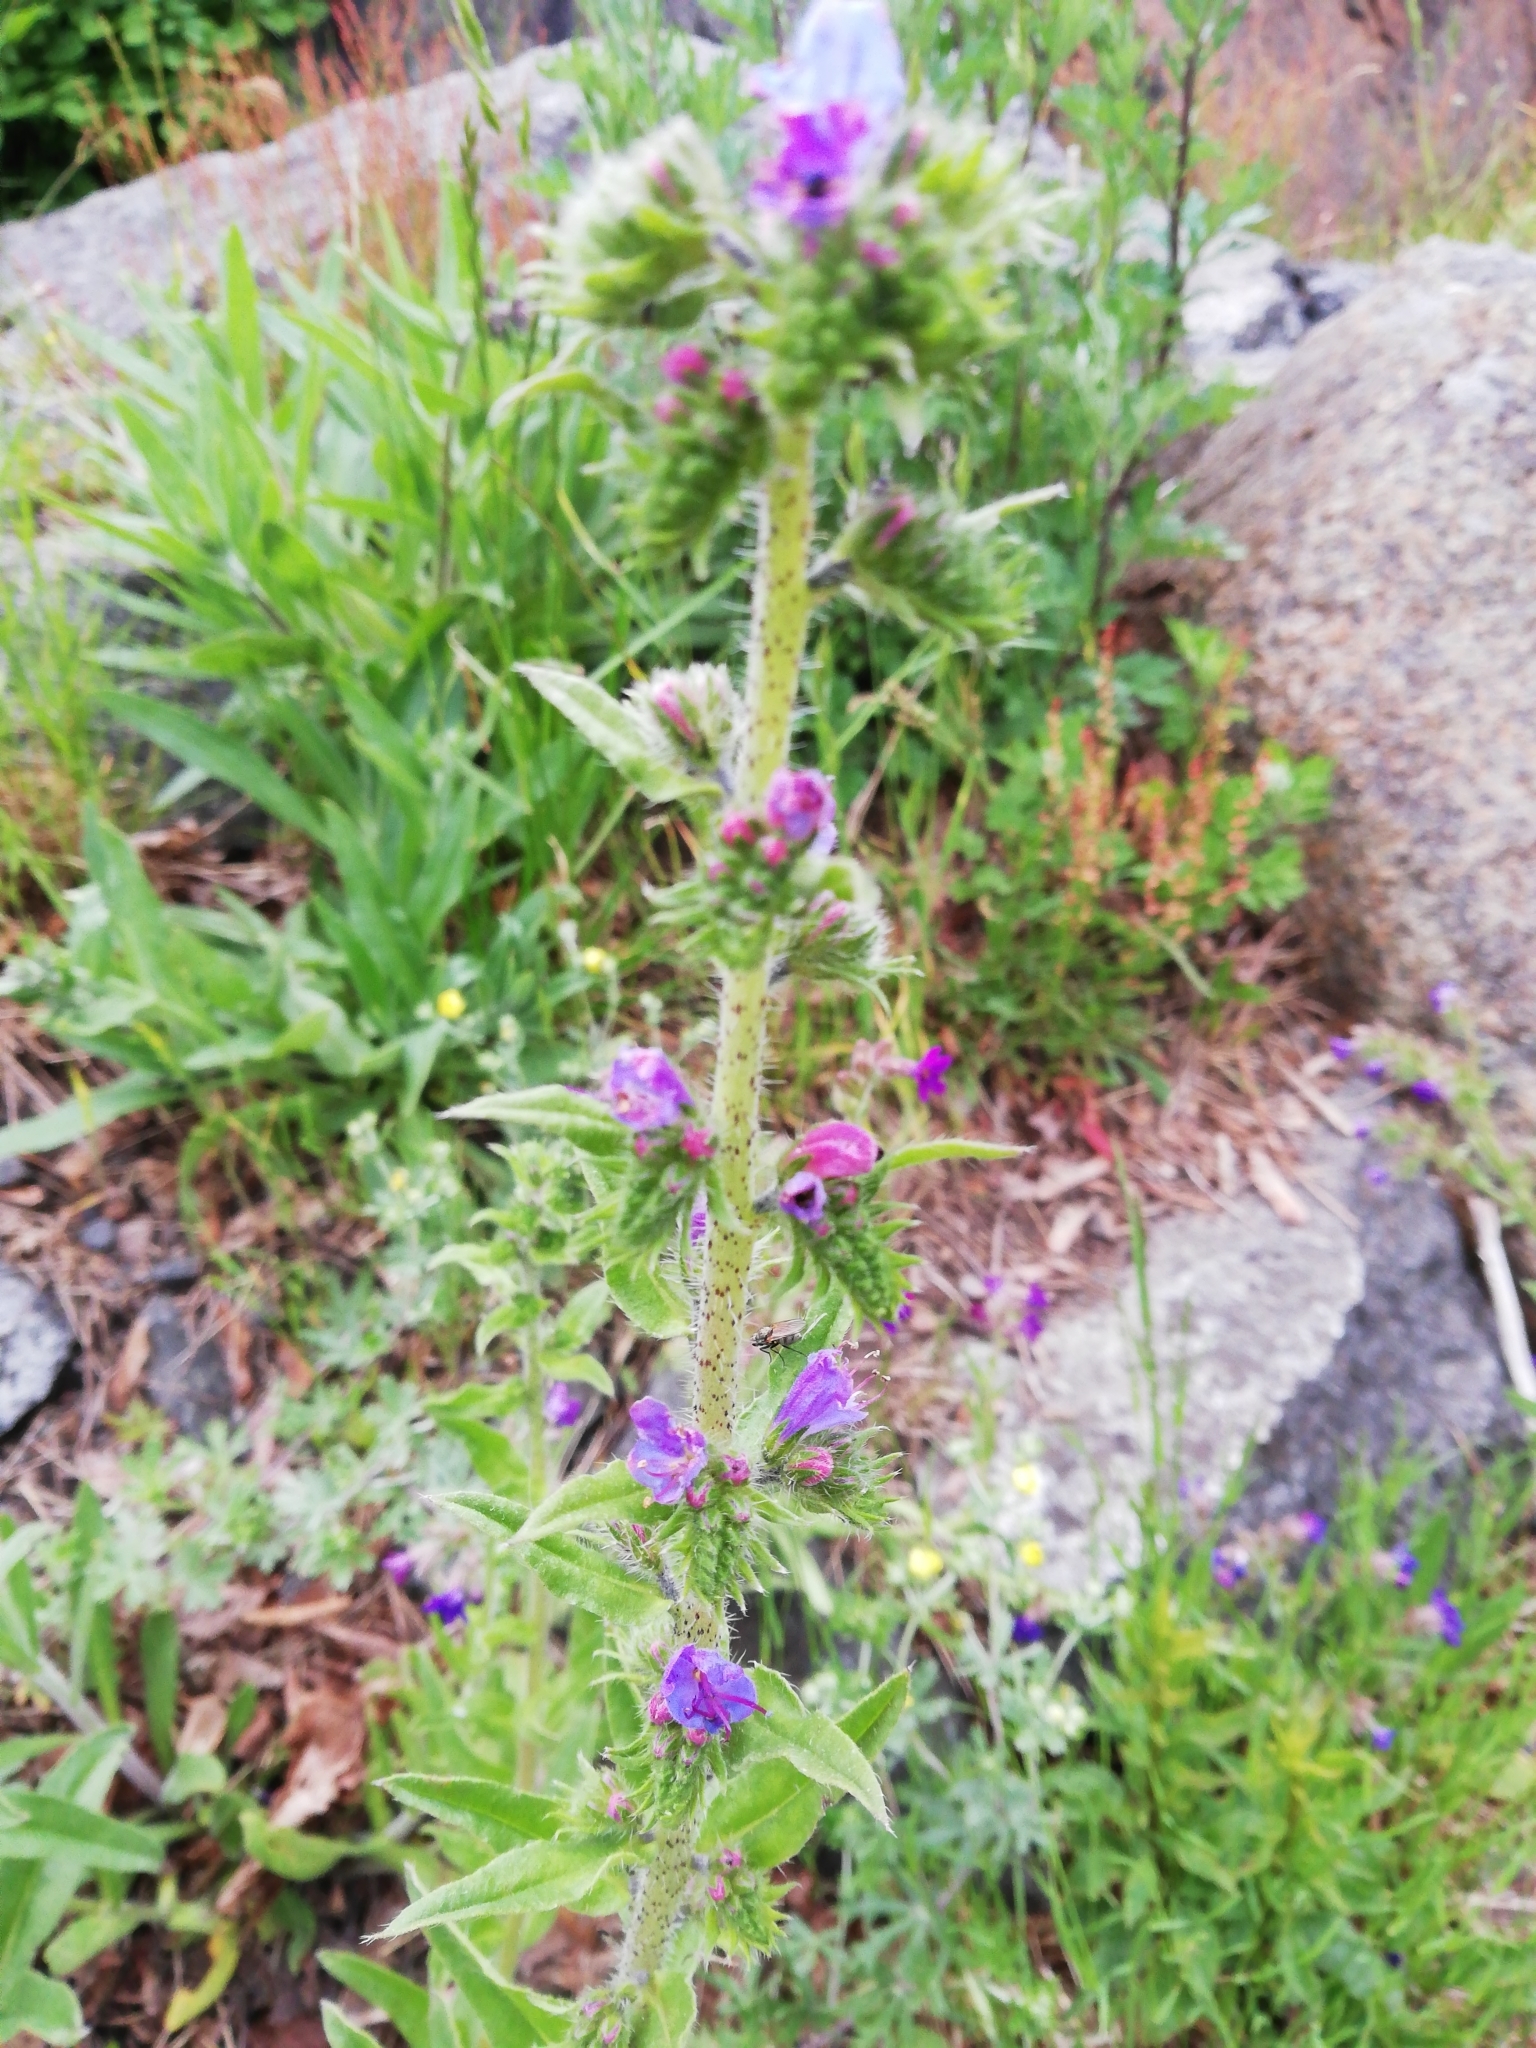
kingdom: Plantae
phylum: Tracheophyta
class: Magnoliopsida
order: Boraginales
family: Boraginaceae
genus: Echium
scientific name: Echium vulgare
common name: Common viper's bugloss
